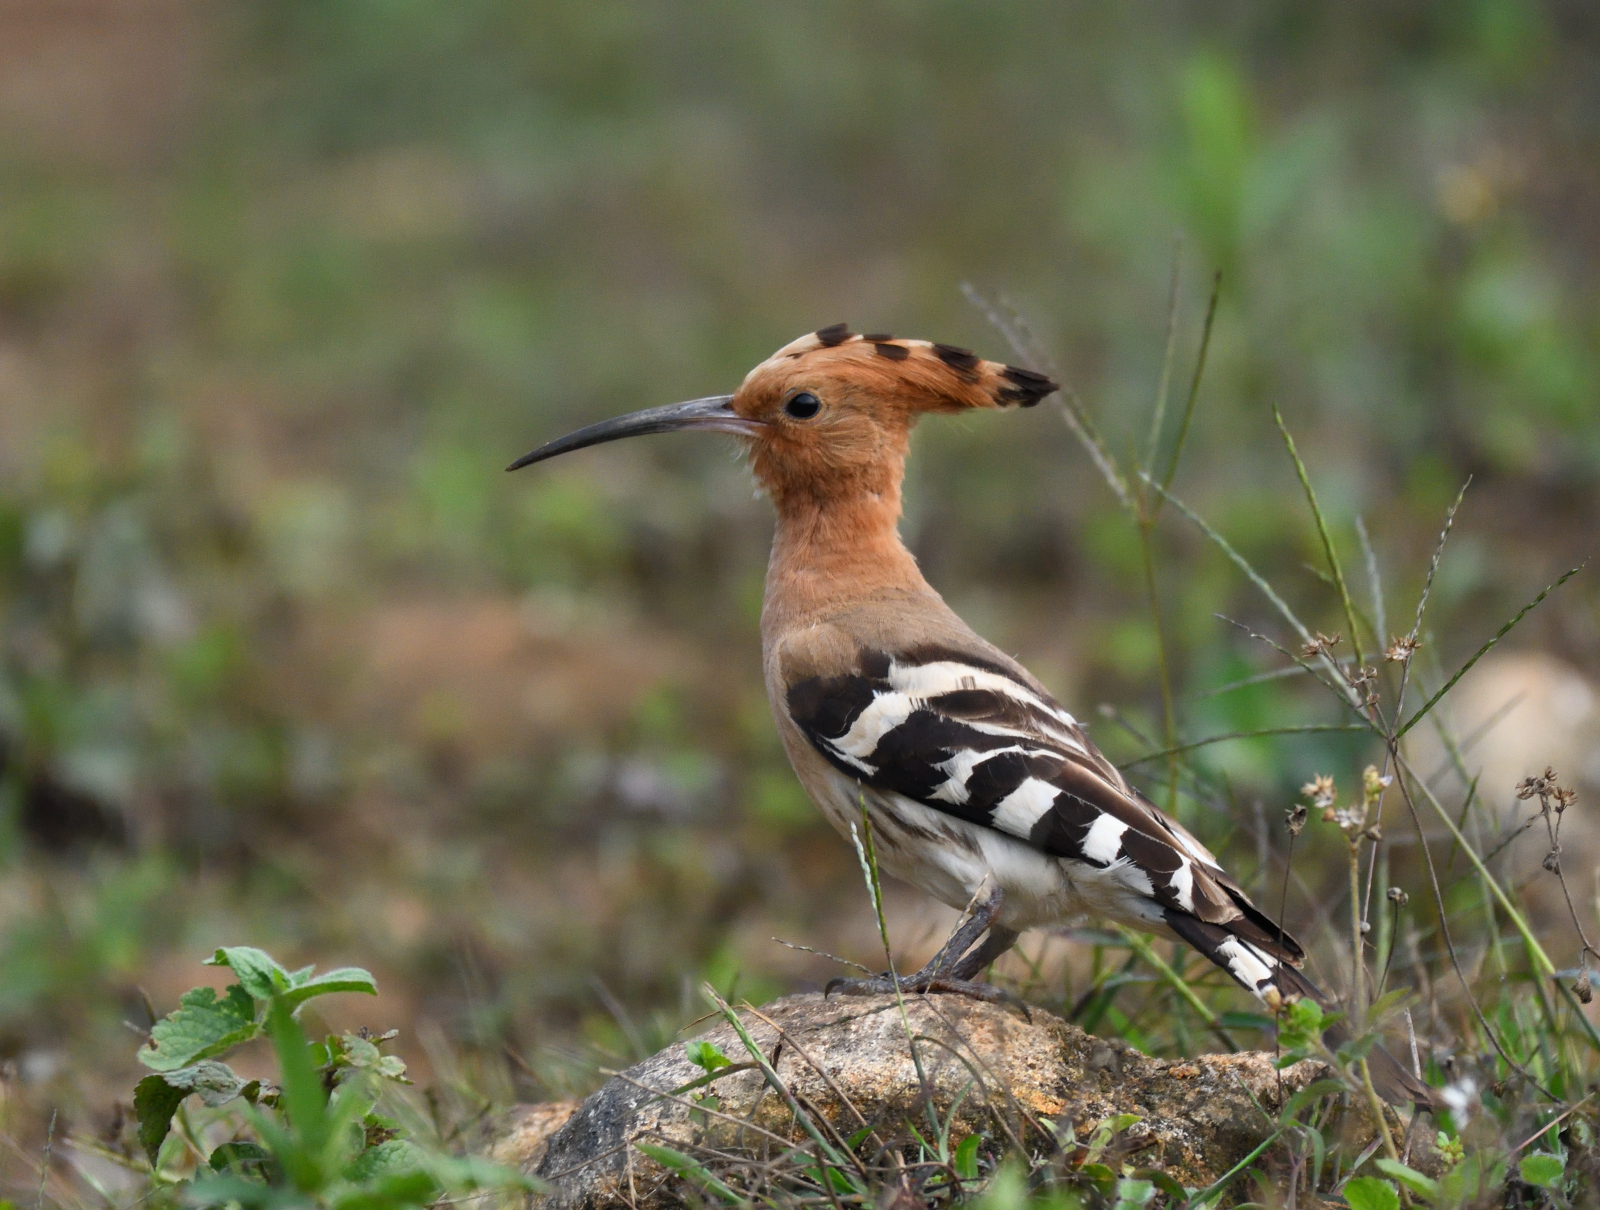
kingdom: Animalia
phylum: Chordata
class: Aves
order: Bucerotiformes
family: Upupidae
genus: Upupa
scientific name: Upupa epops
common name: Eurasian hoopoe
